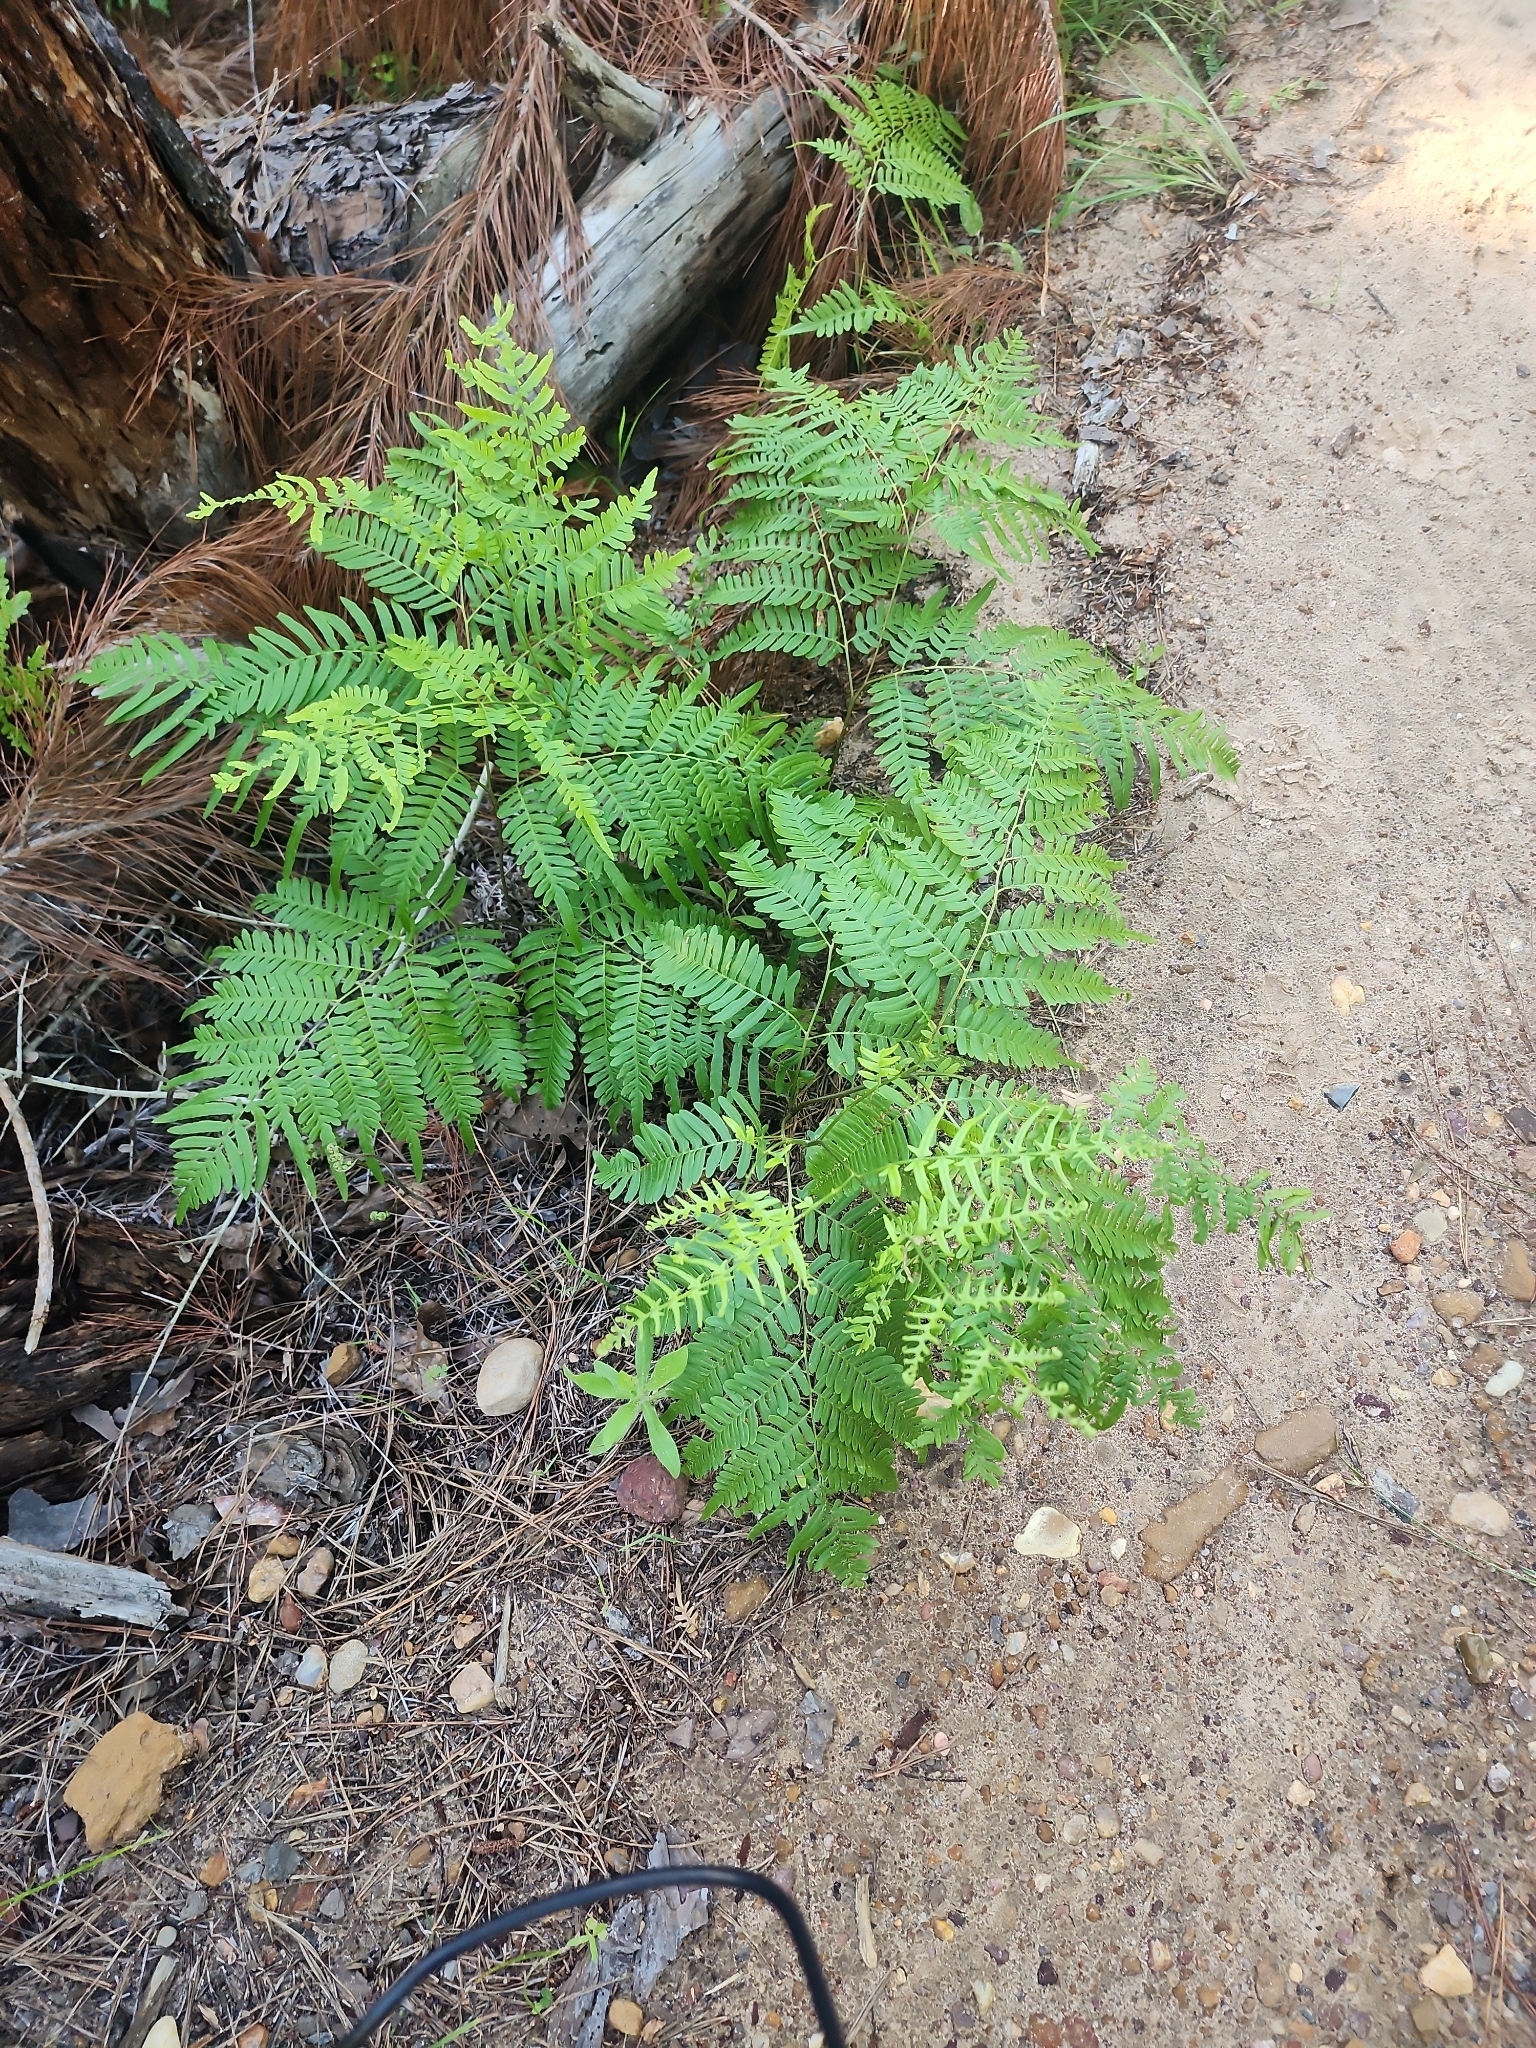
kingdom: Plantae
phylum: Tracheophyta
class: Polypodiopsida
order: Polypodiales
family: Dennstaedtiaceae
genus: Pteridium
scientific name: Pteridium
